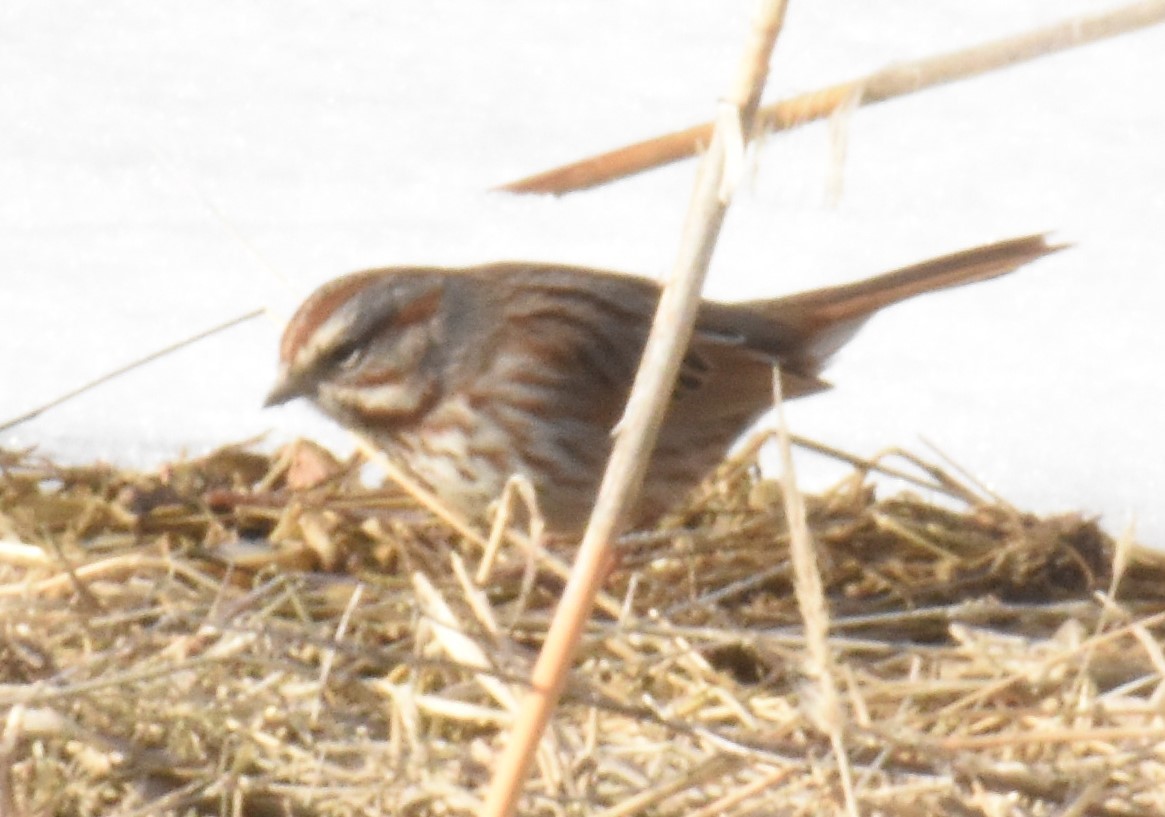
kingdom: Animalia
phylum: Chordata
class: Aves
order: Passeriformes
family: Passerellidae
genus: Melospiza
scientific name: Melospiza melodia
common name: Song sparrow
